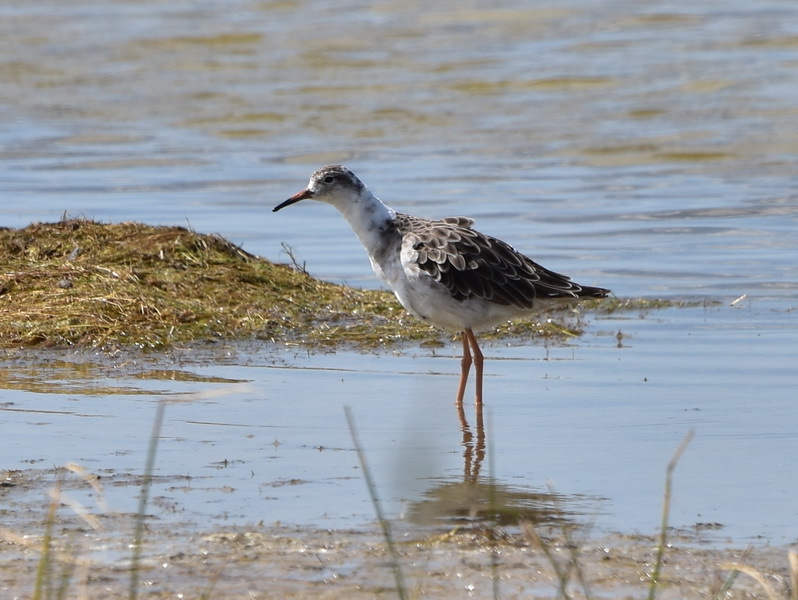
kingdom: Animalia
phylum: Chordata
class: Aves
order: Charadriiformes
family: Scolopacidae
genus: Calidris
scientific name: Calidris pugnax
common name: Ruff
